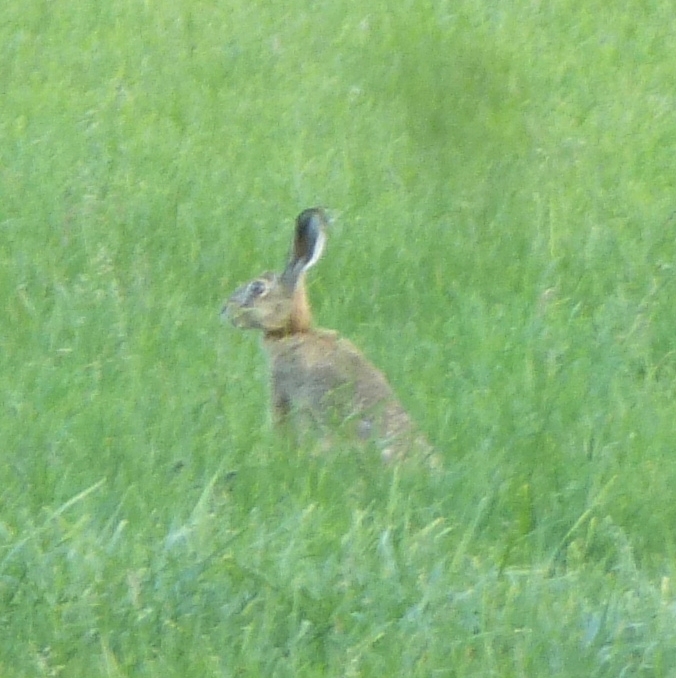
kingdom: Animalia
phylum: Chordata
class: Mammalia
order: Lagomorpha
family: Leporidae
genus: Lepus
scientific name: Lepus europaeus
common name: European hare
